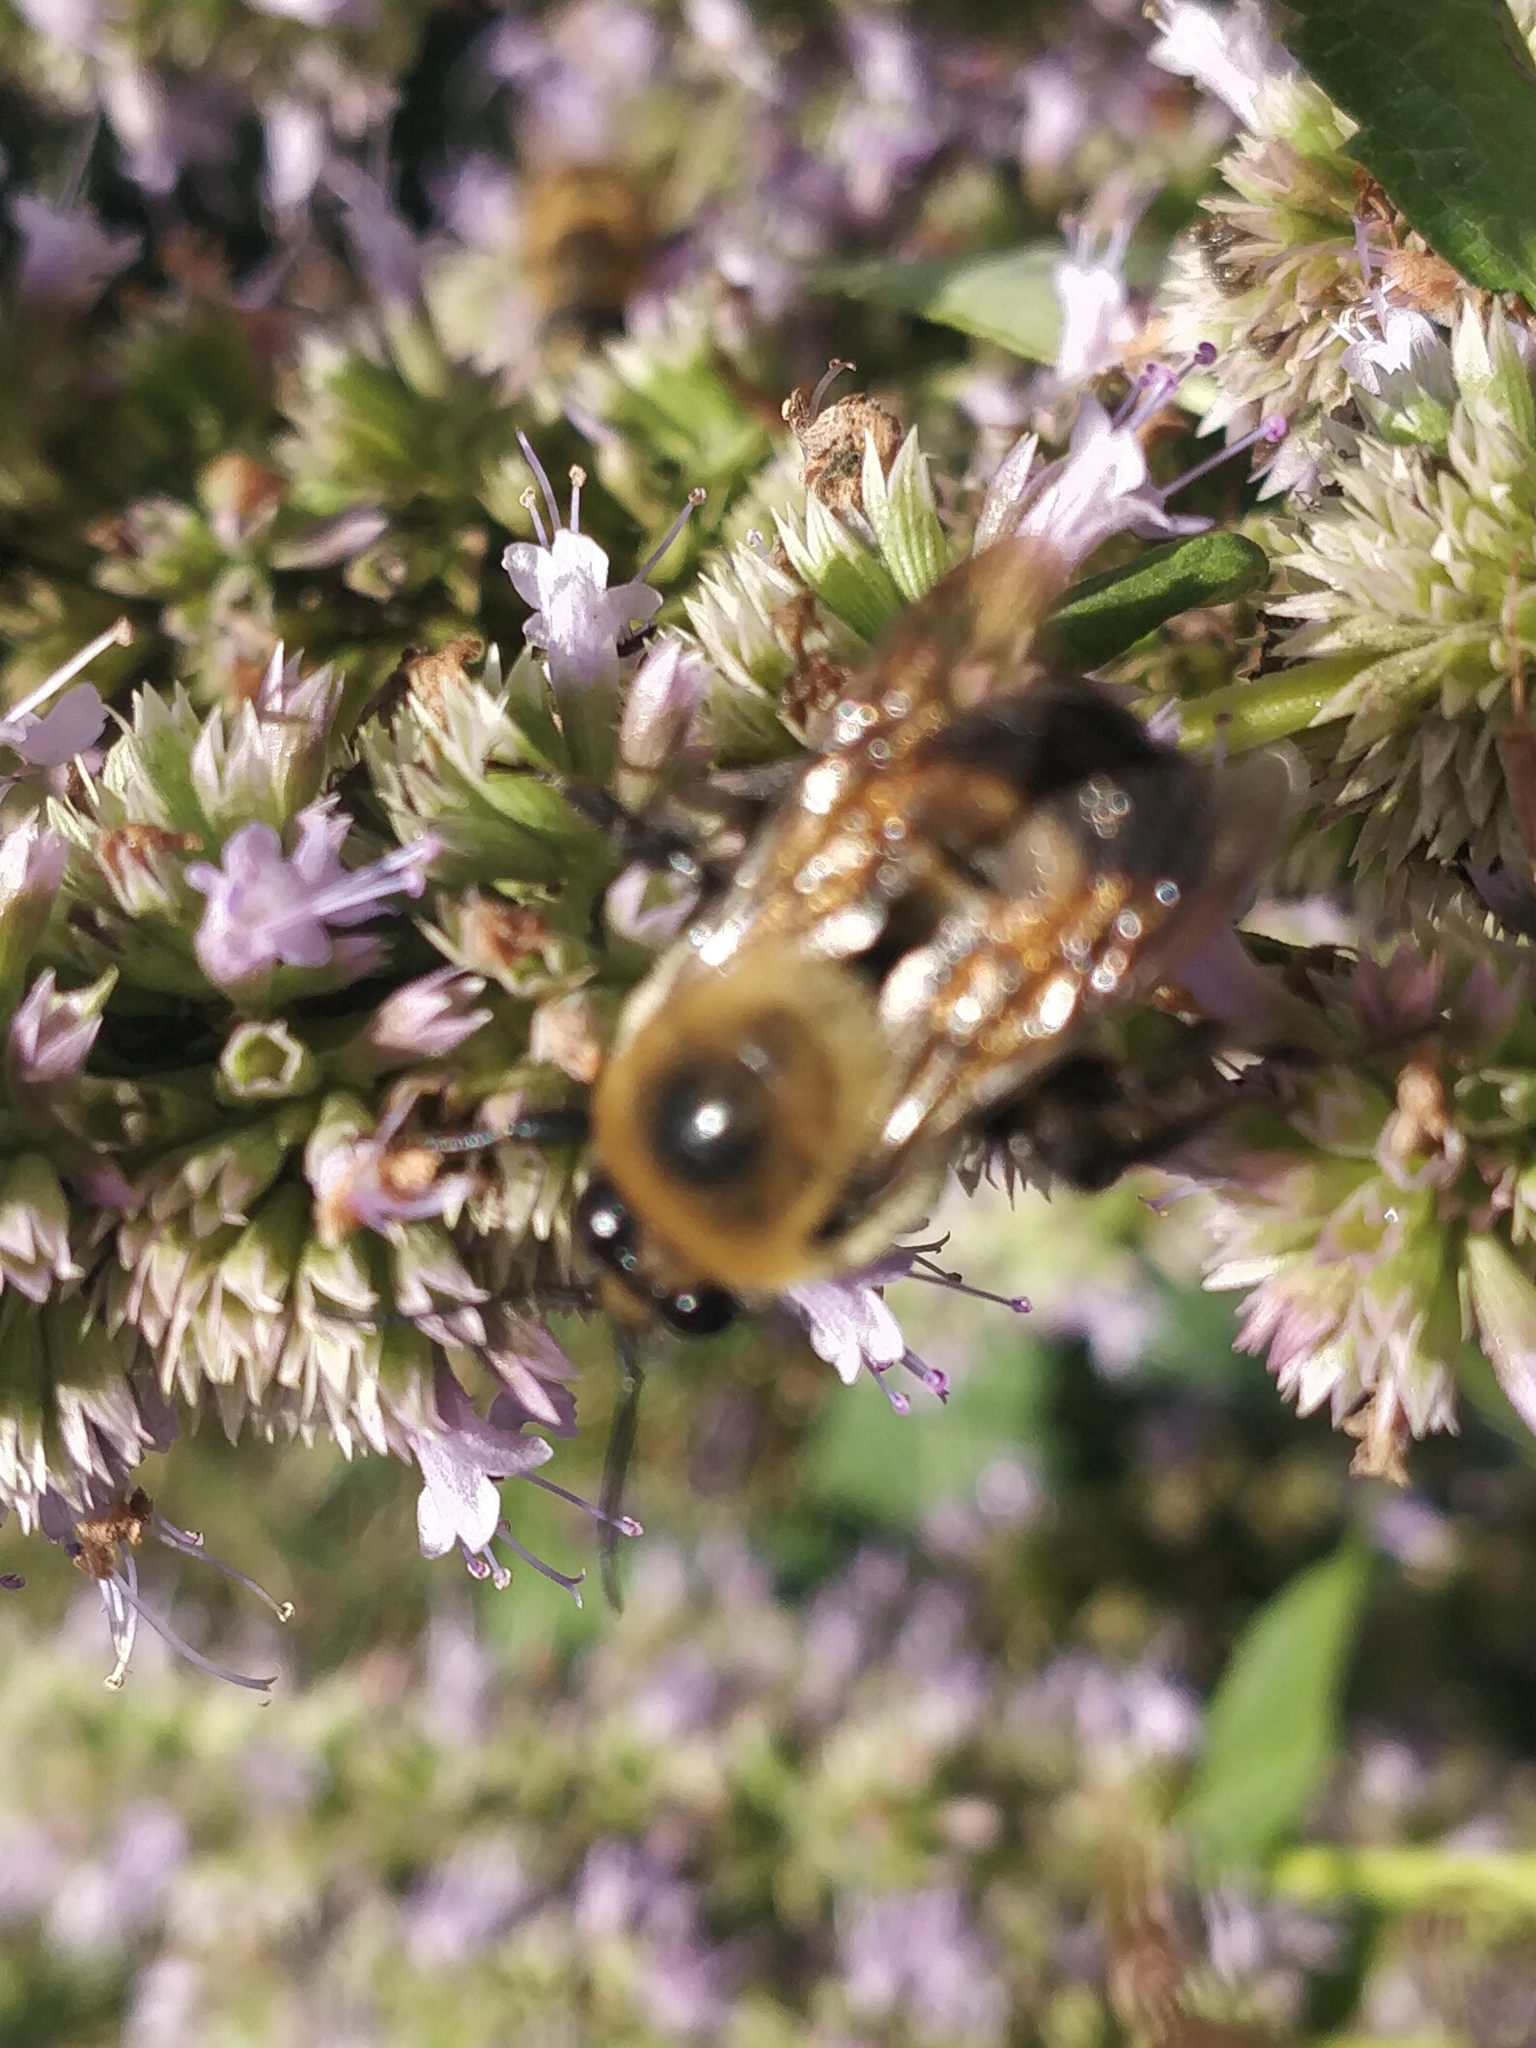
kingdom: Animalia
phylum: Arthropoda
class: Insecta
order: Hymenoptera
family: Apidae
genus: Bombus
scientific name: Bombus griseocollis
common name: Brown-belted bumble bee
